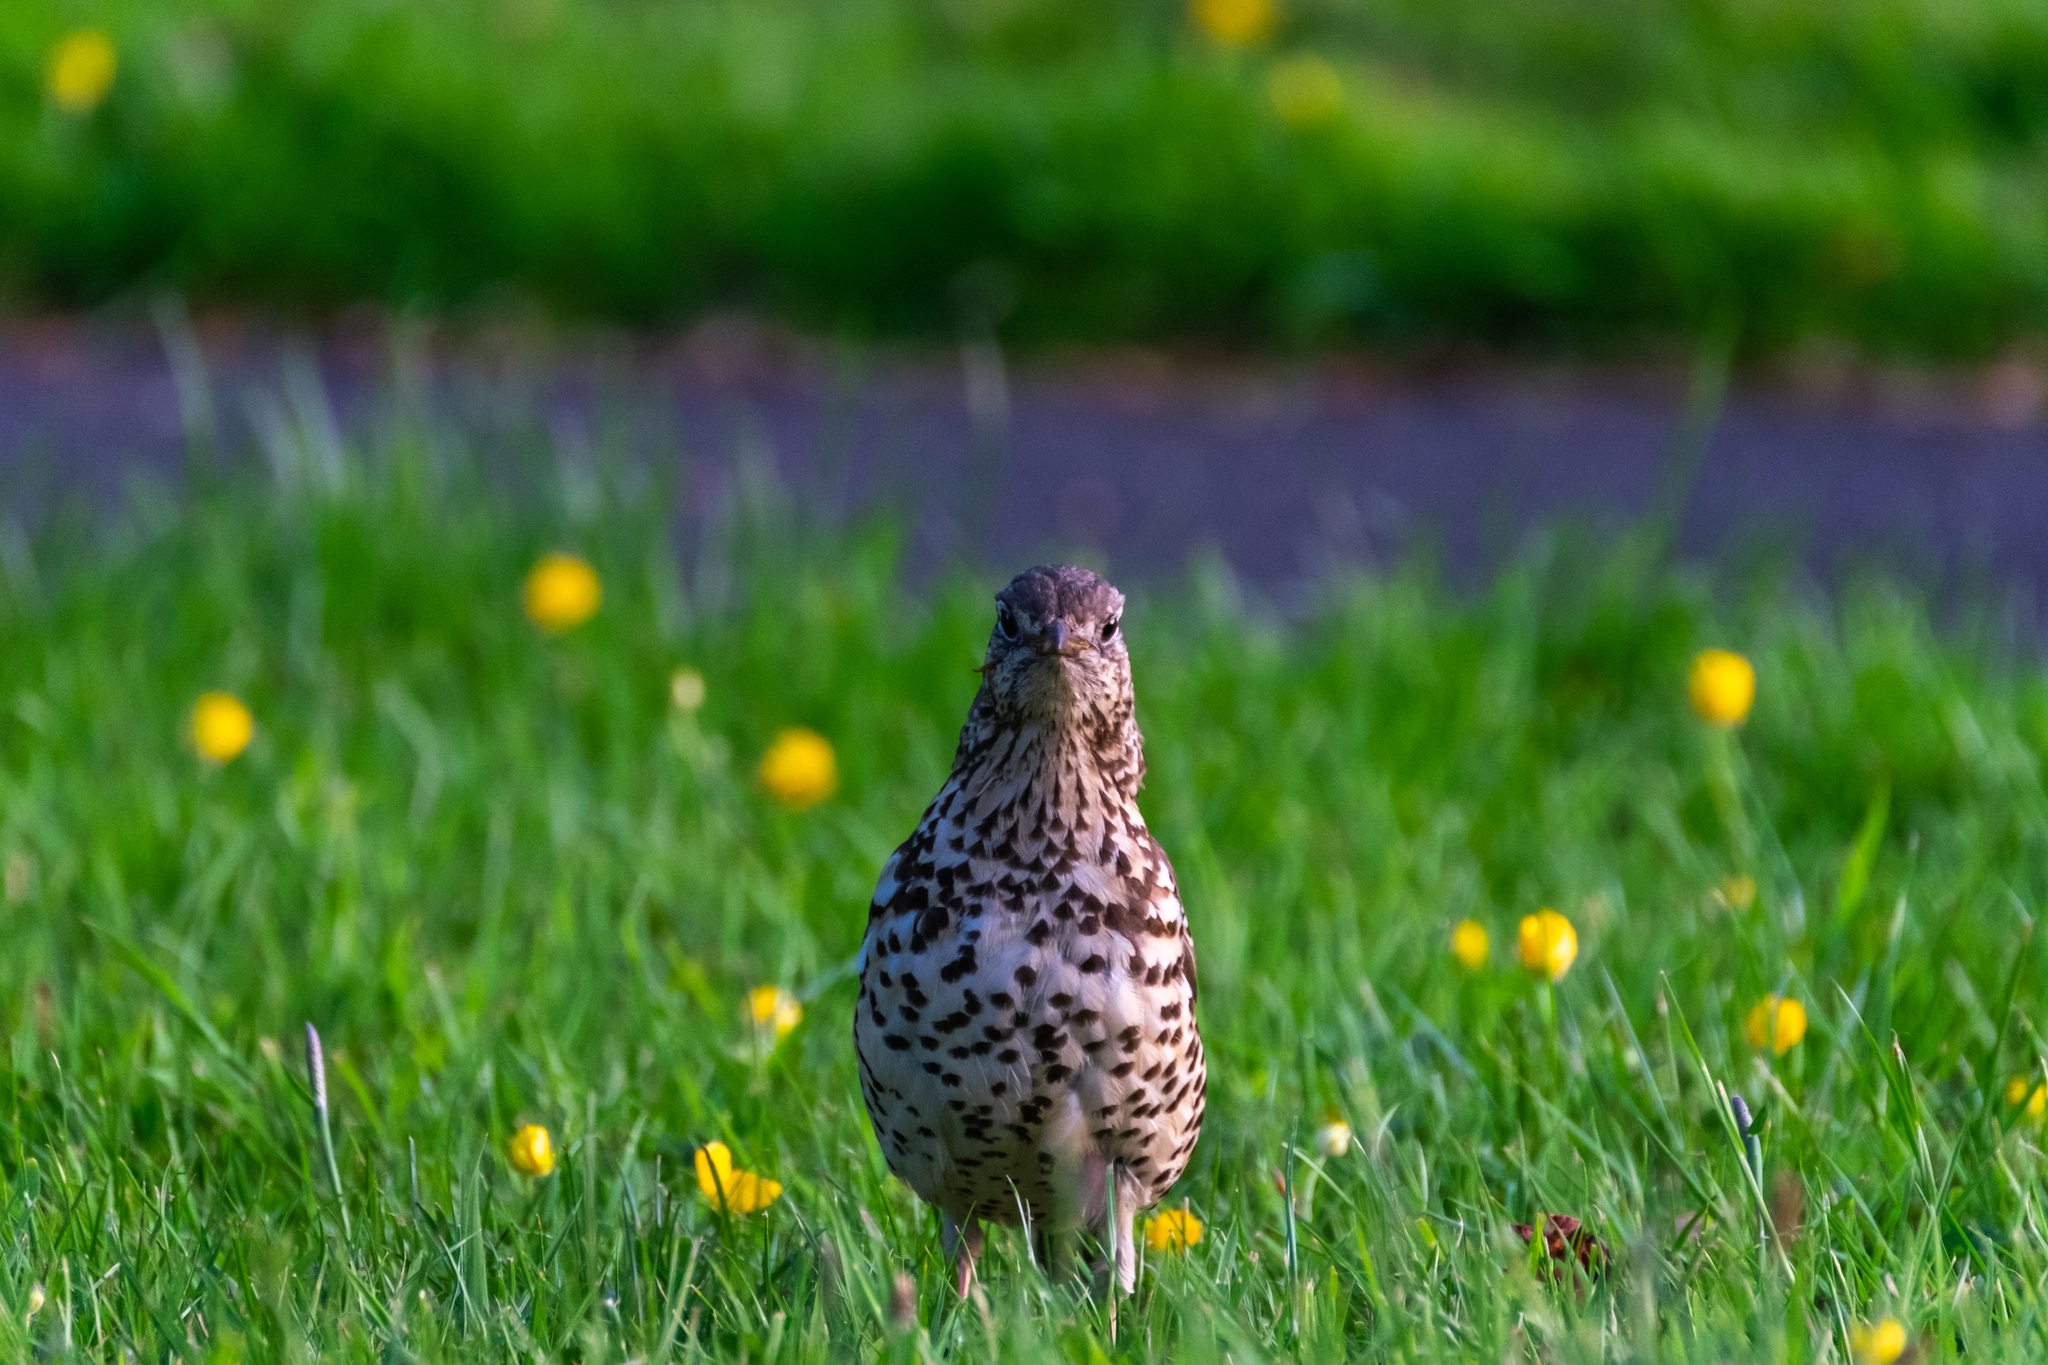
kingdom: Animalia
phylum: Chordata
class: Aves
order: Passeriformes
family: Turdidae
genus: Turdus
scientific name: Turdus viscivorus
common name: Mistle thrush
